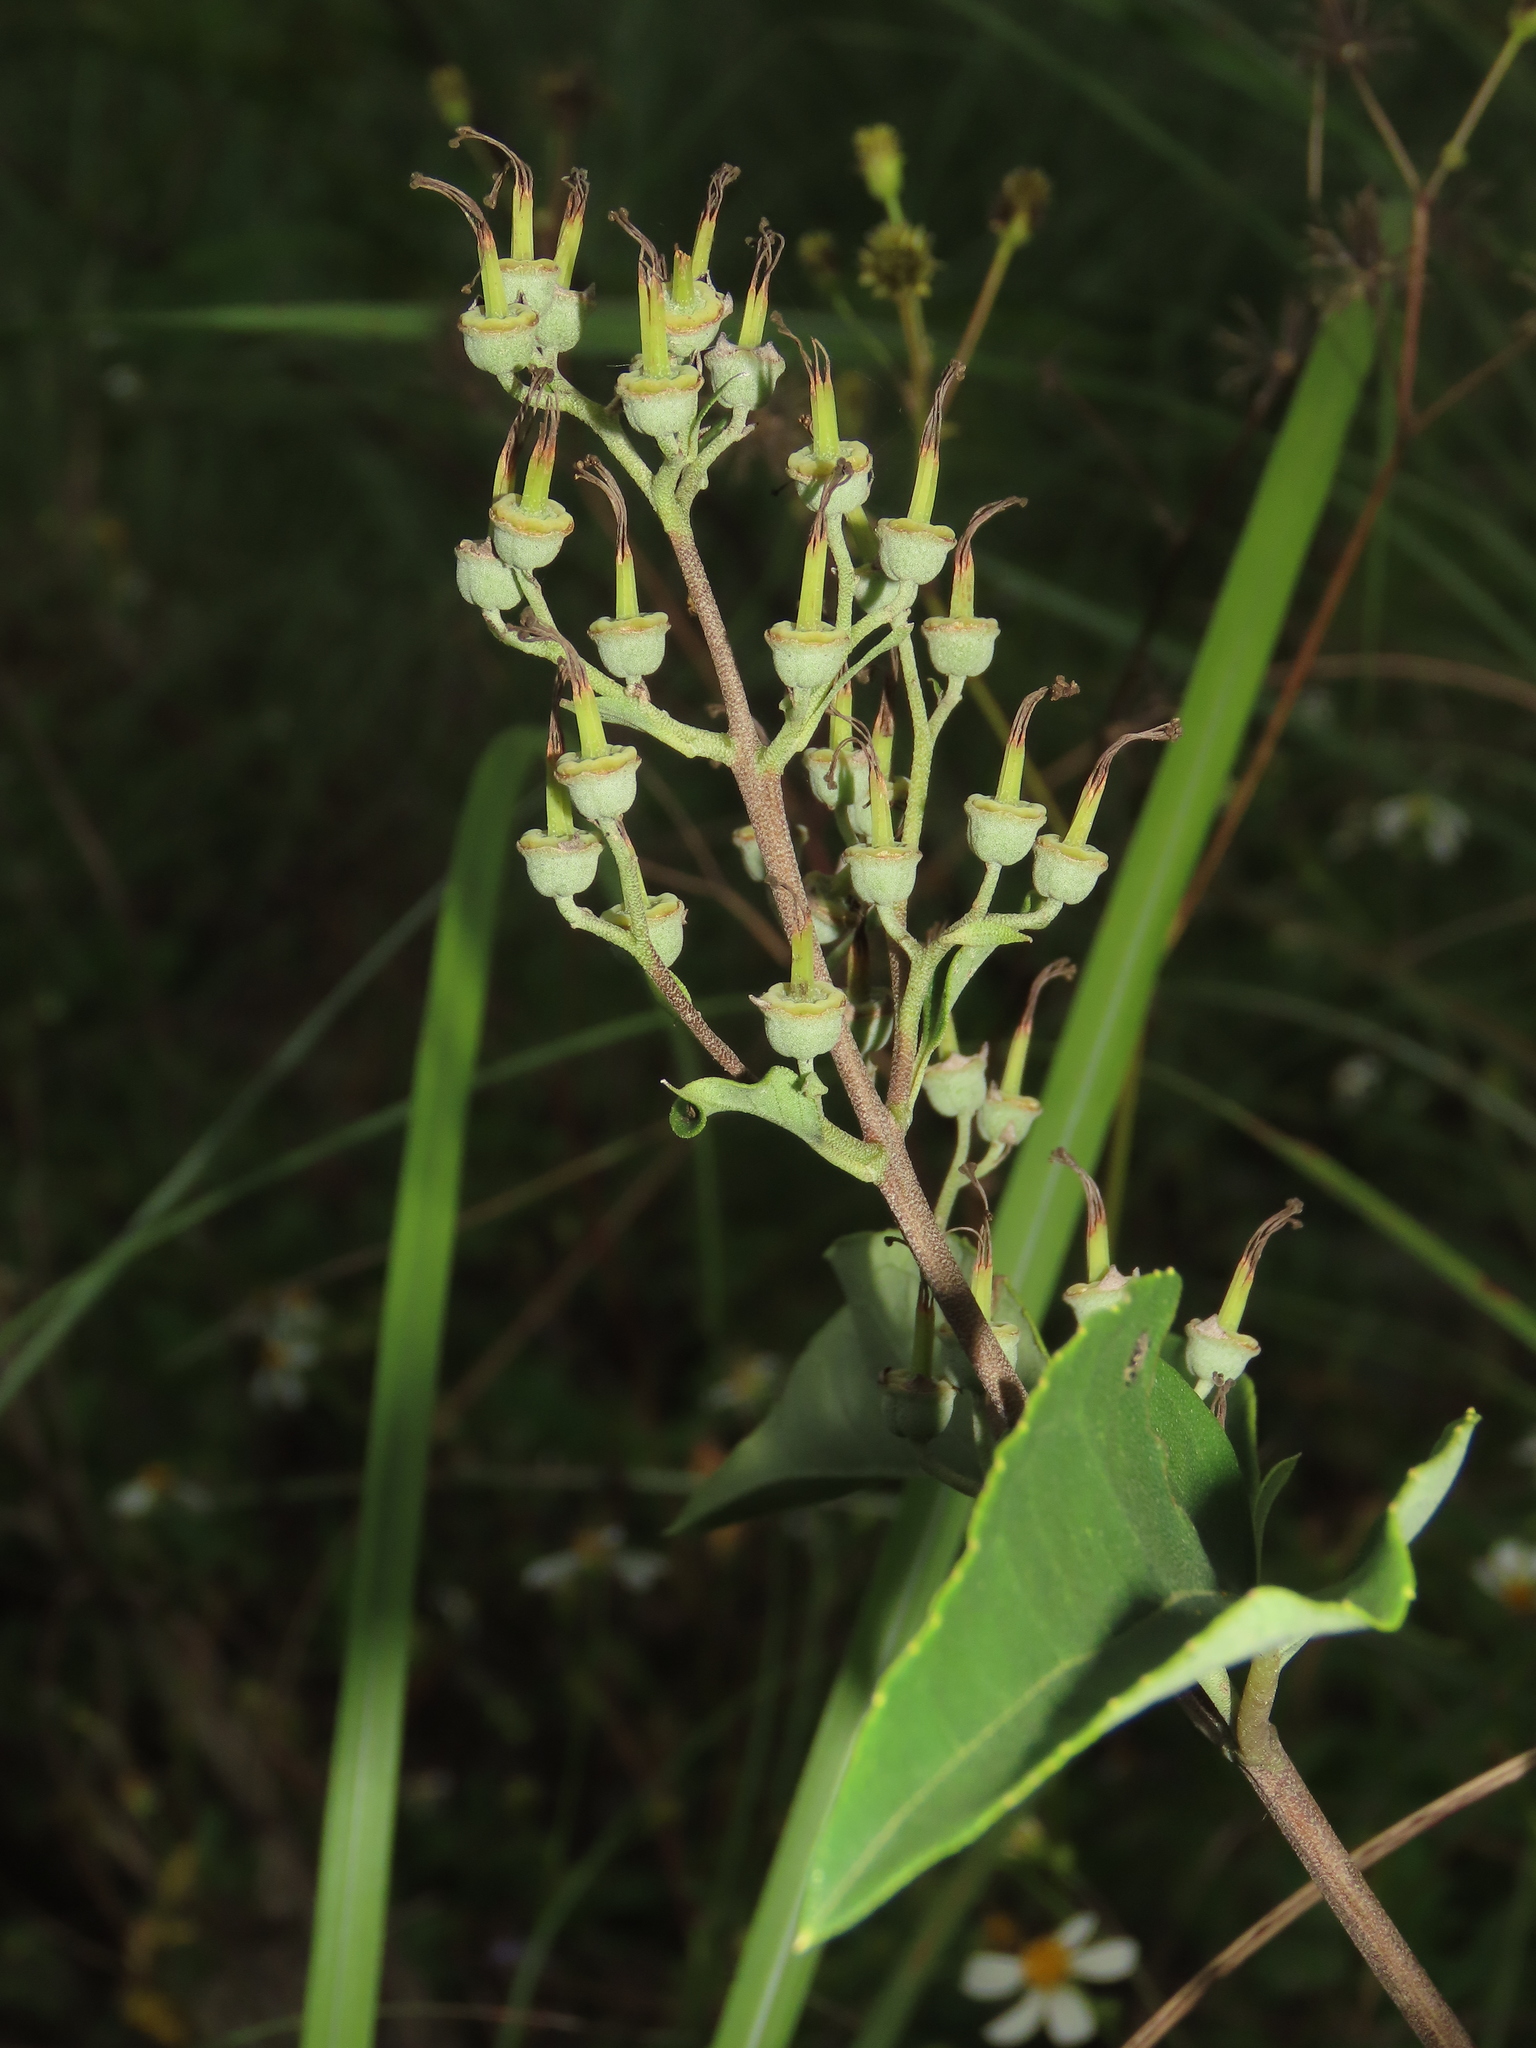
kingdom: Plantae
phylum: Tracheophyta
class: Magnoliopsida
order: Cornales
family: Hydrangeaceae
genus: Deutzia
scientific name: Deutzia pulchra
